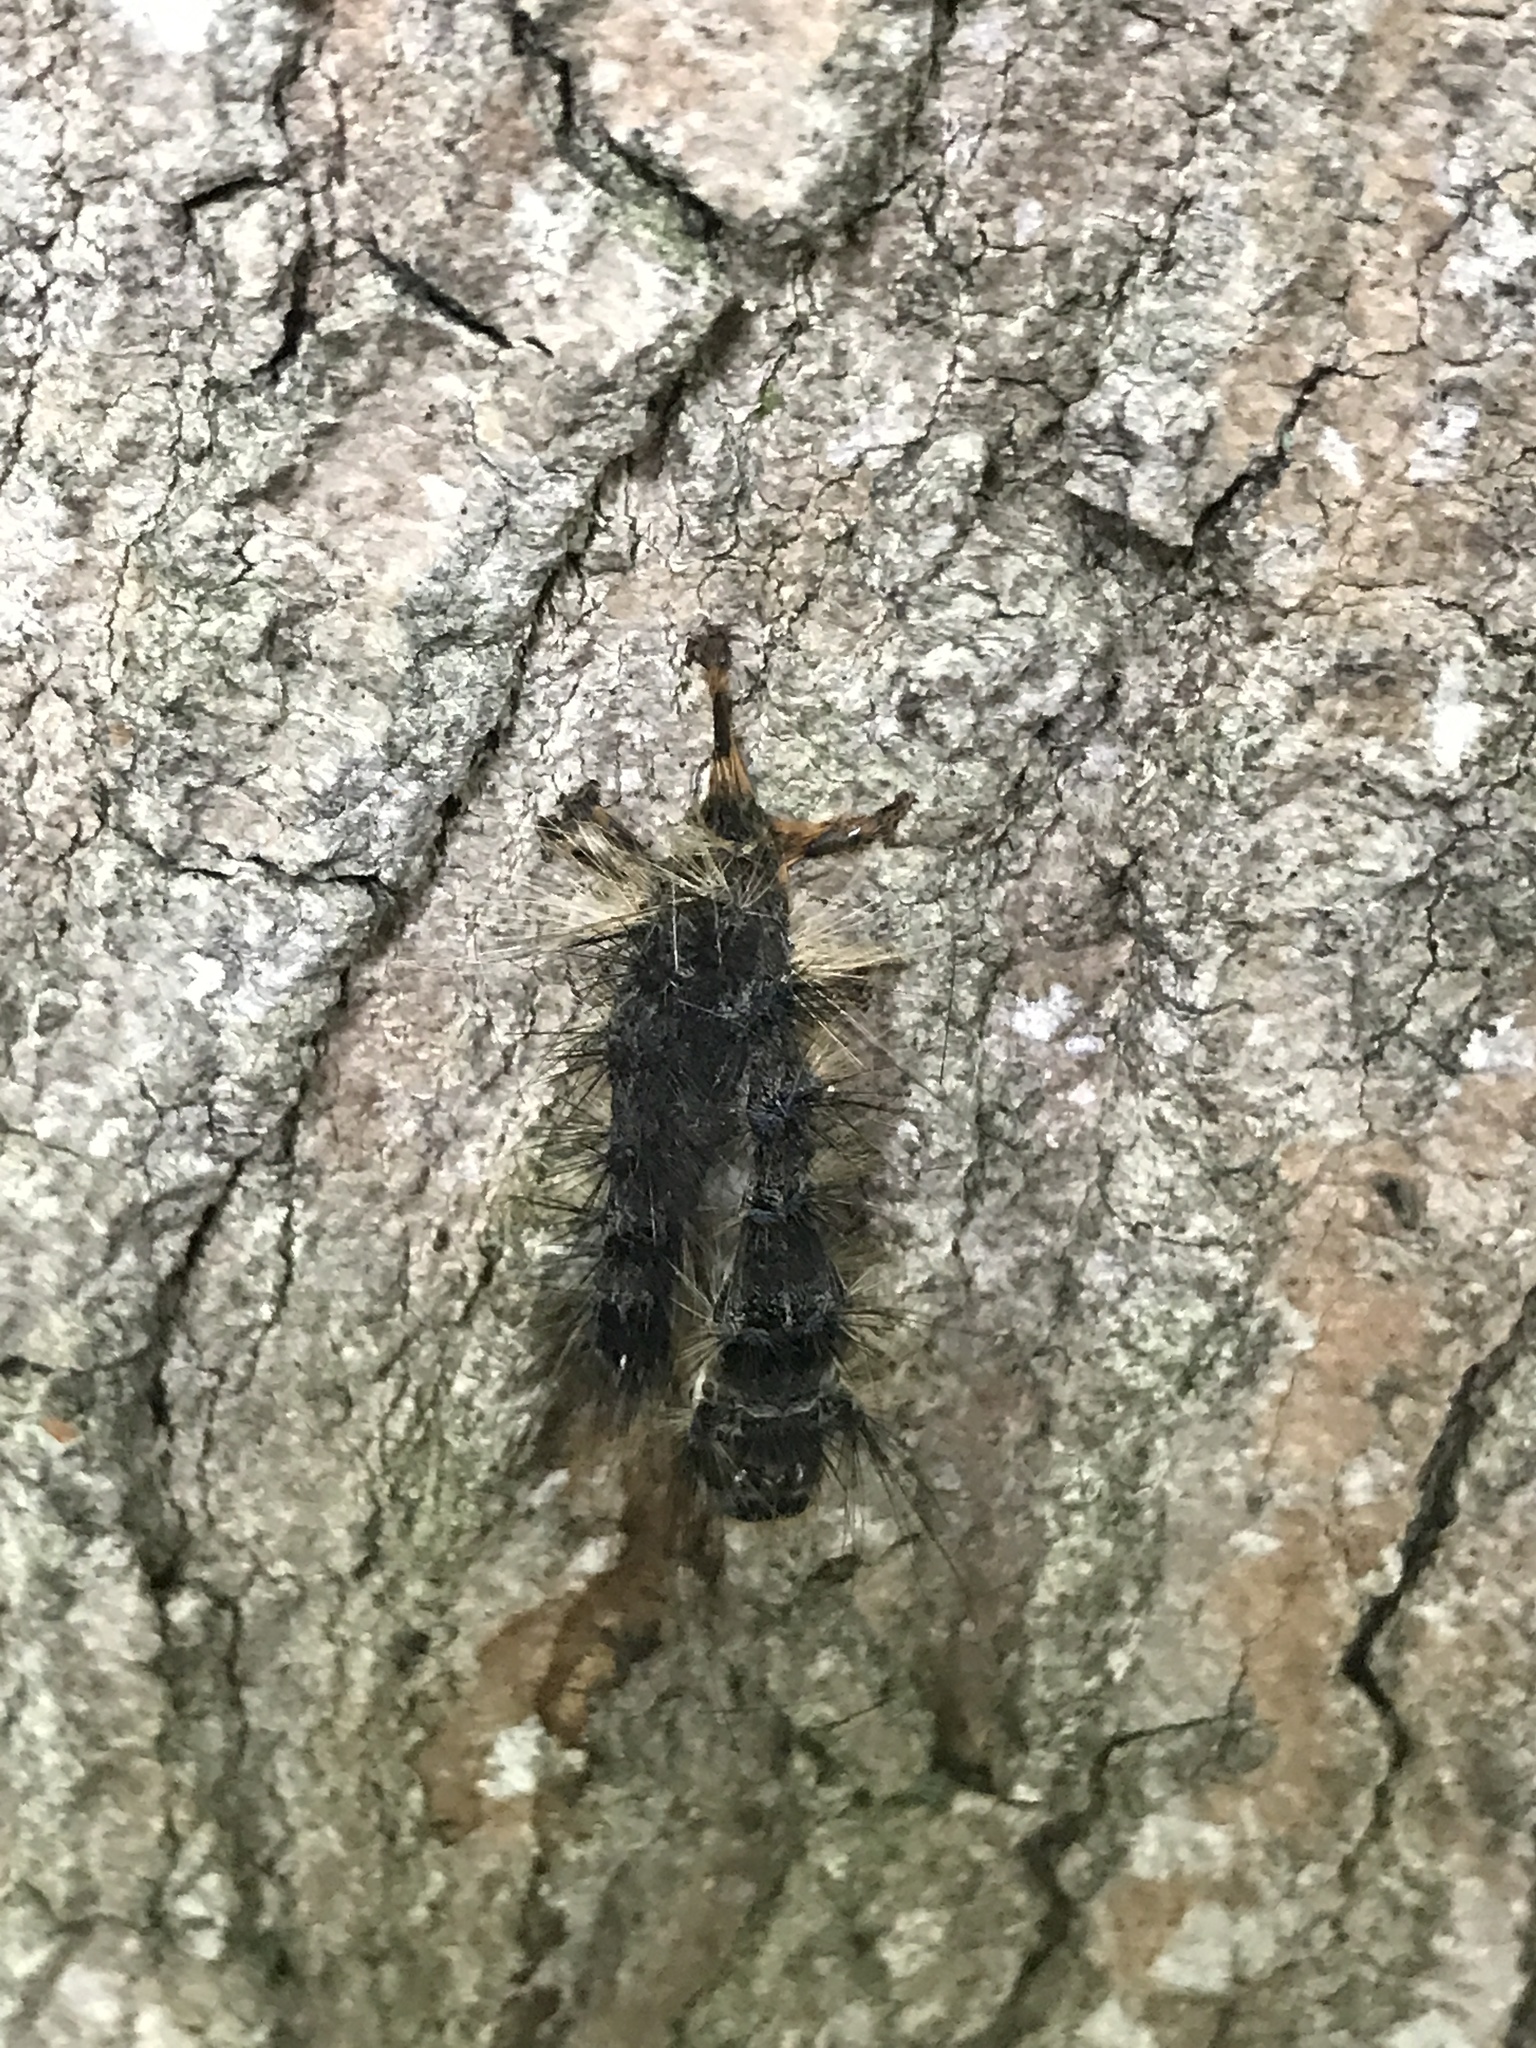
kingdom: Animalia
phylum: Arthropoda
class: Insecta
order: Lepidoptera
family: Erebidae
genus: Lymantria
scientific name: Lymantria dispar
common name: Gypsy moth
